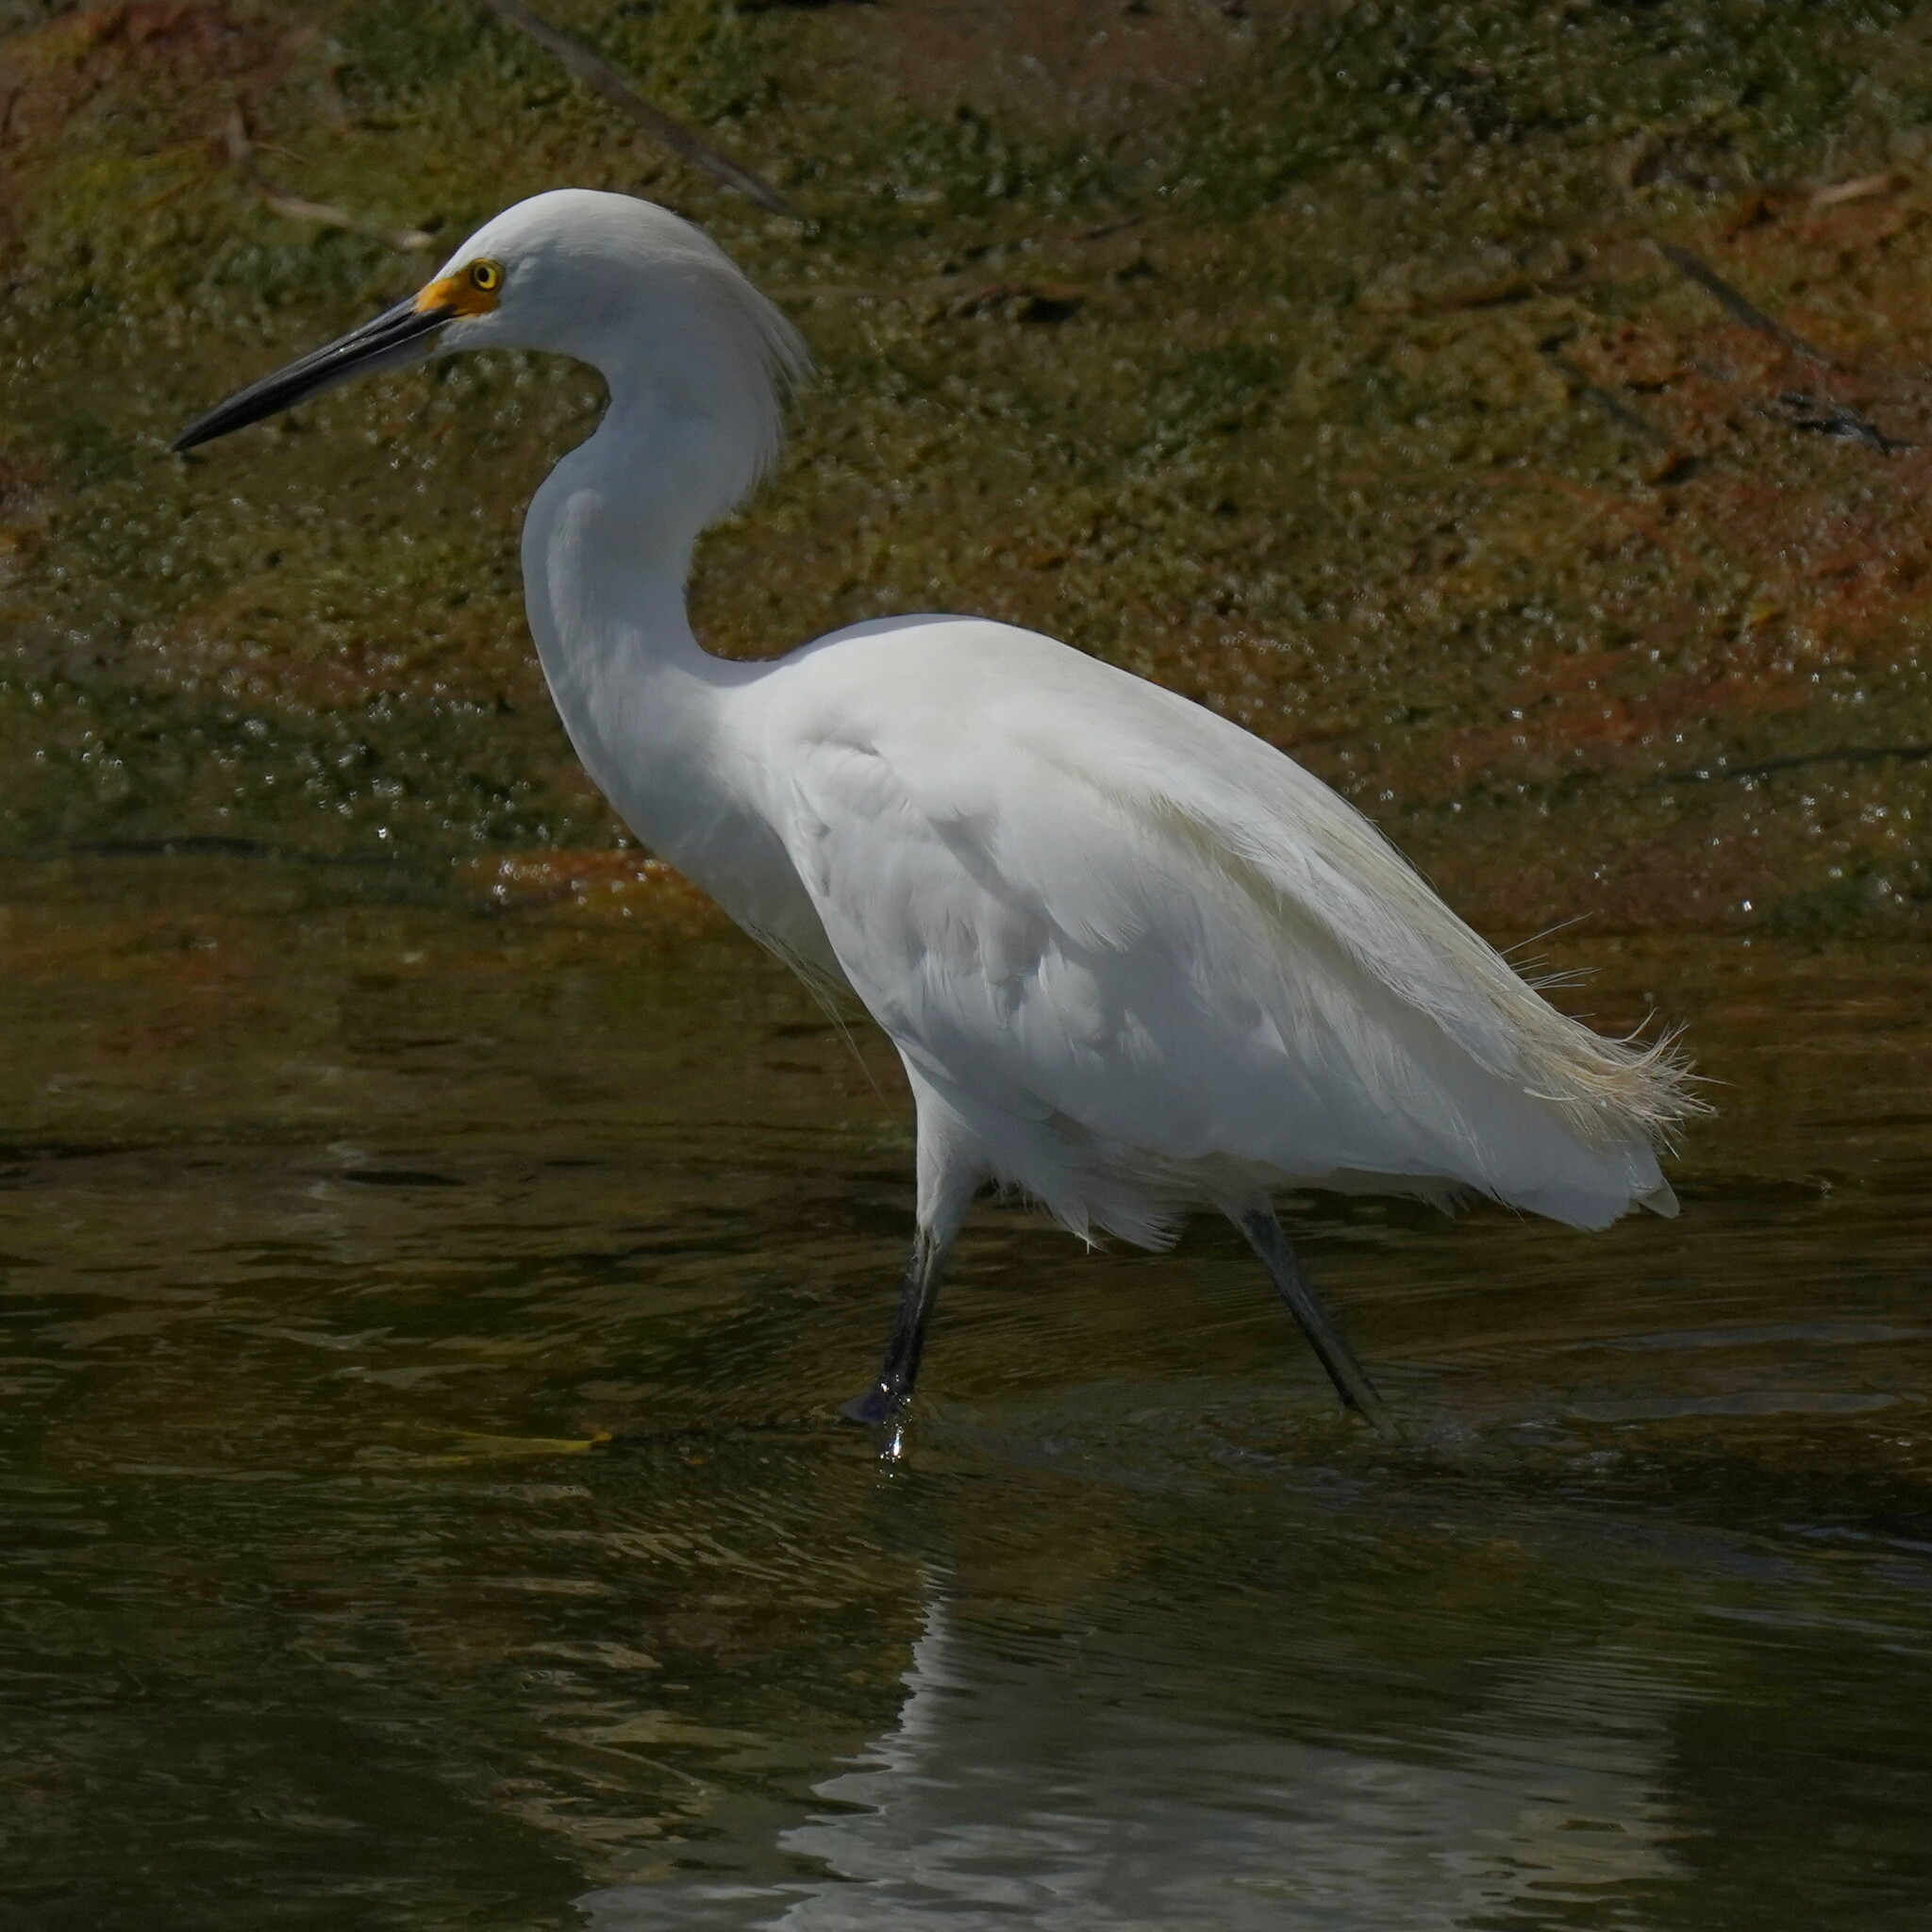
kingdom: Animalia
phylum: Chordata
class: Aves
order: Pelecaniformes
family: Ardeidae
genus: Egretta
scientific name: Egretta thula
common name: Snowy egret
